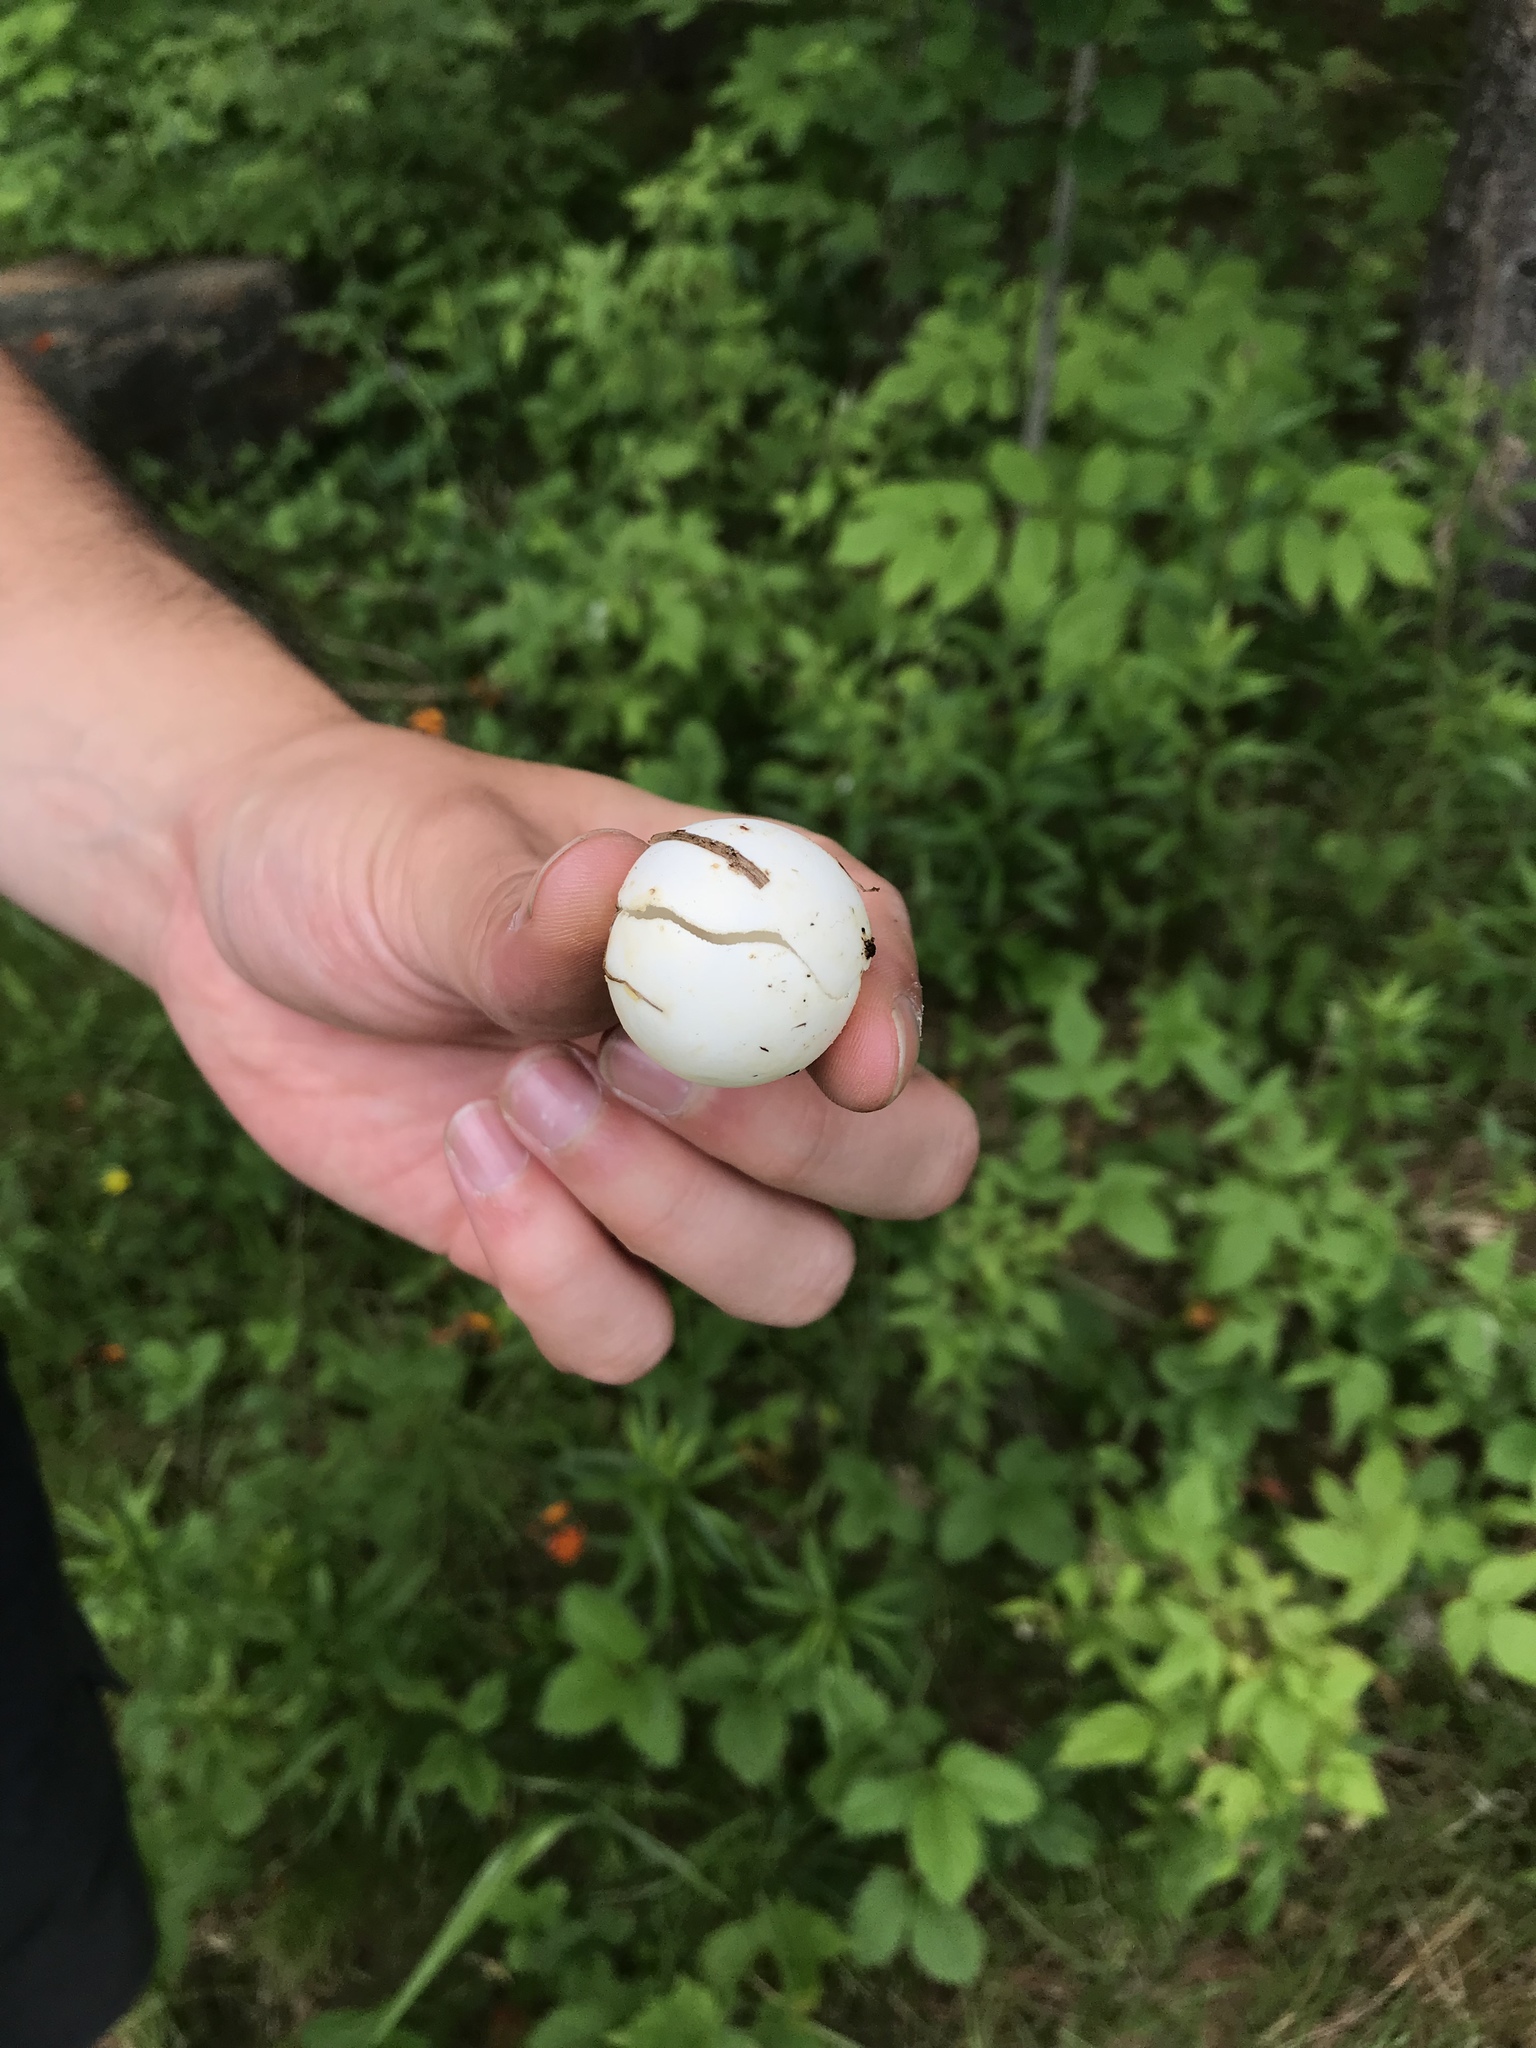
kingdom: Animalia
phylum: Chordata
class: Testudines
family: Chelydridae
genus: Chelydra
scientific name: Chelydra serpentina
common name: Common snapping turtle
